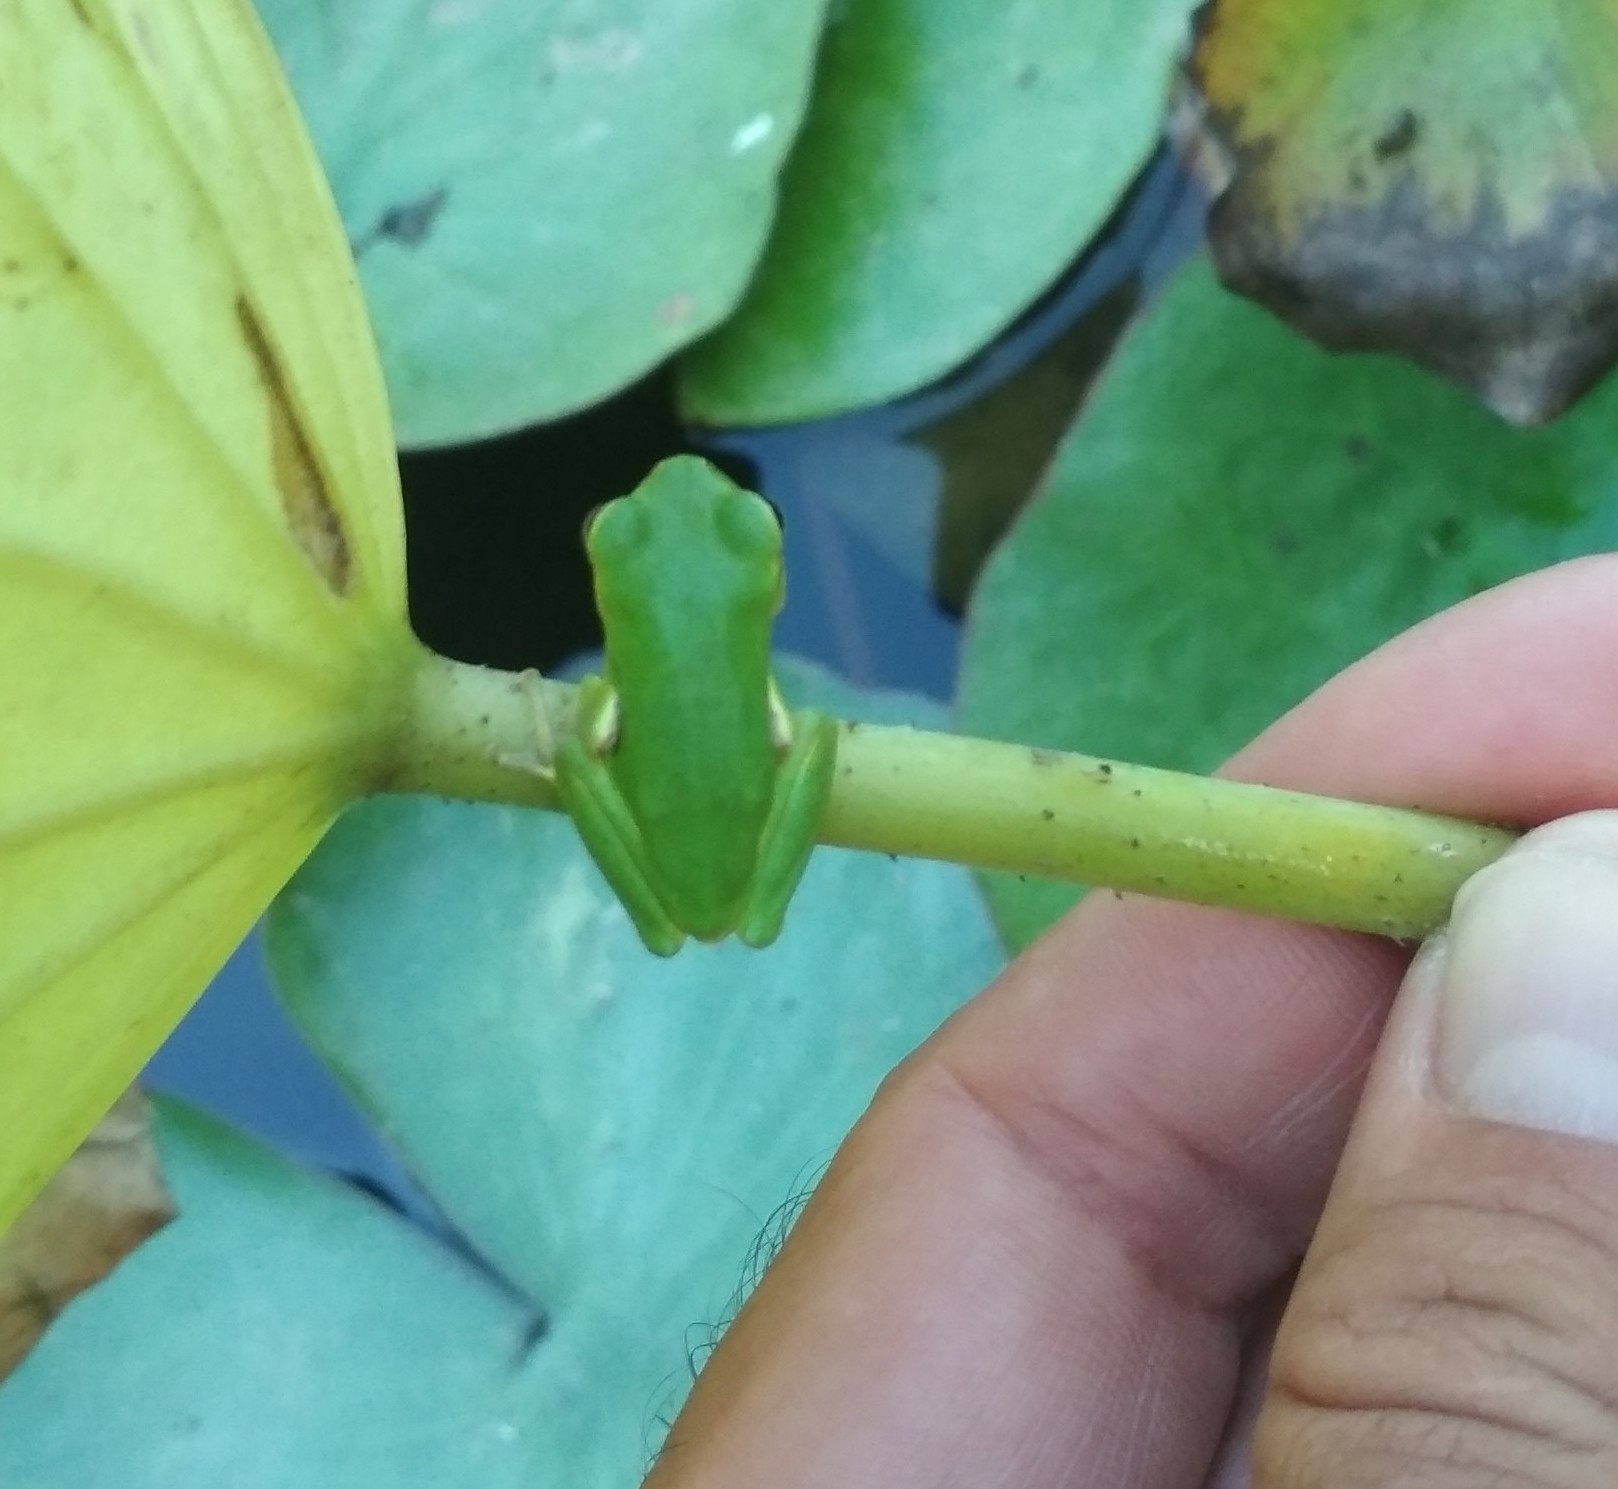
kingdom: Animalia
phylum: Chordata
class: Amphibia
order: Anura
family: Hylidae
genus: Hyla
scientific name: Hyla sarda
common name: Sardinian tree frog
